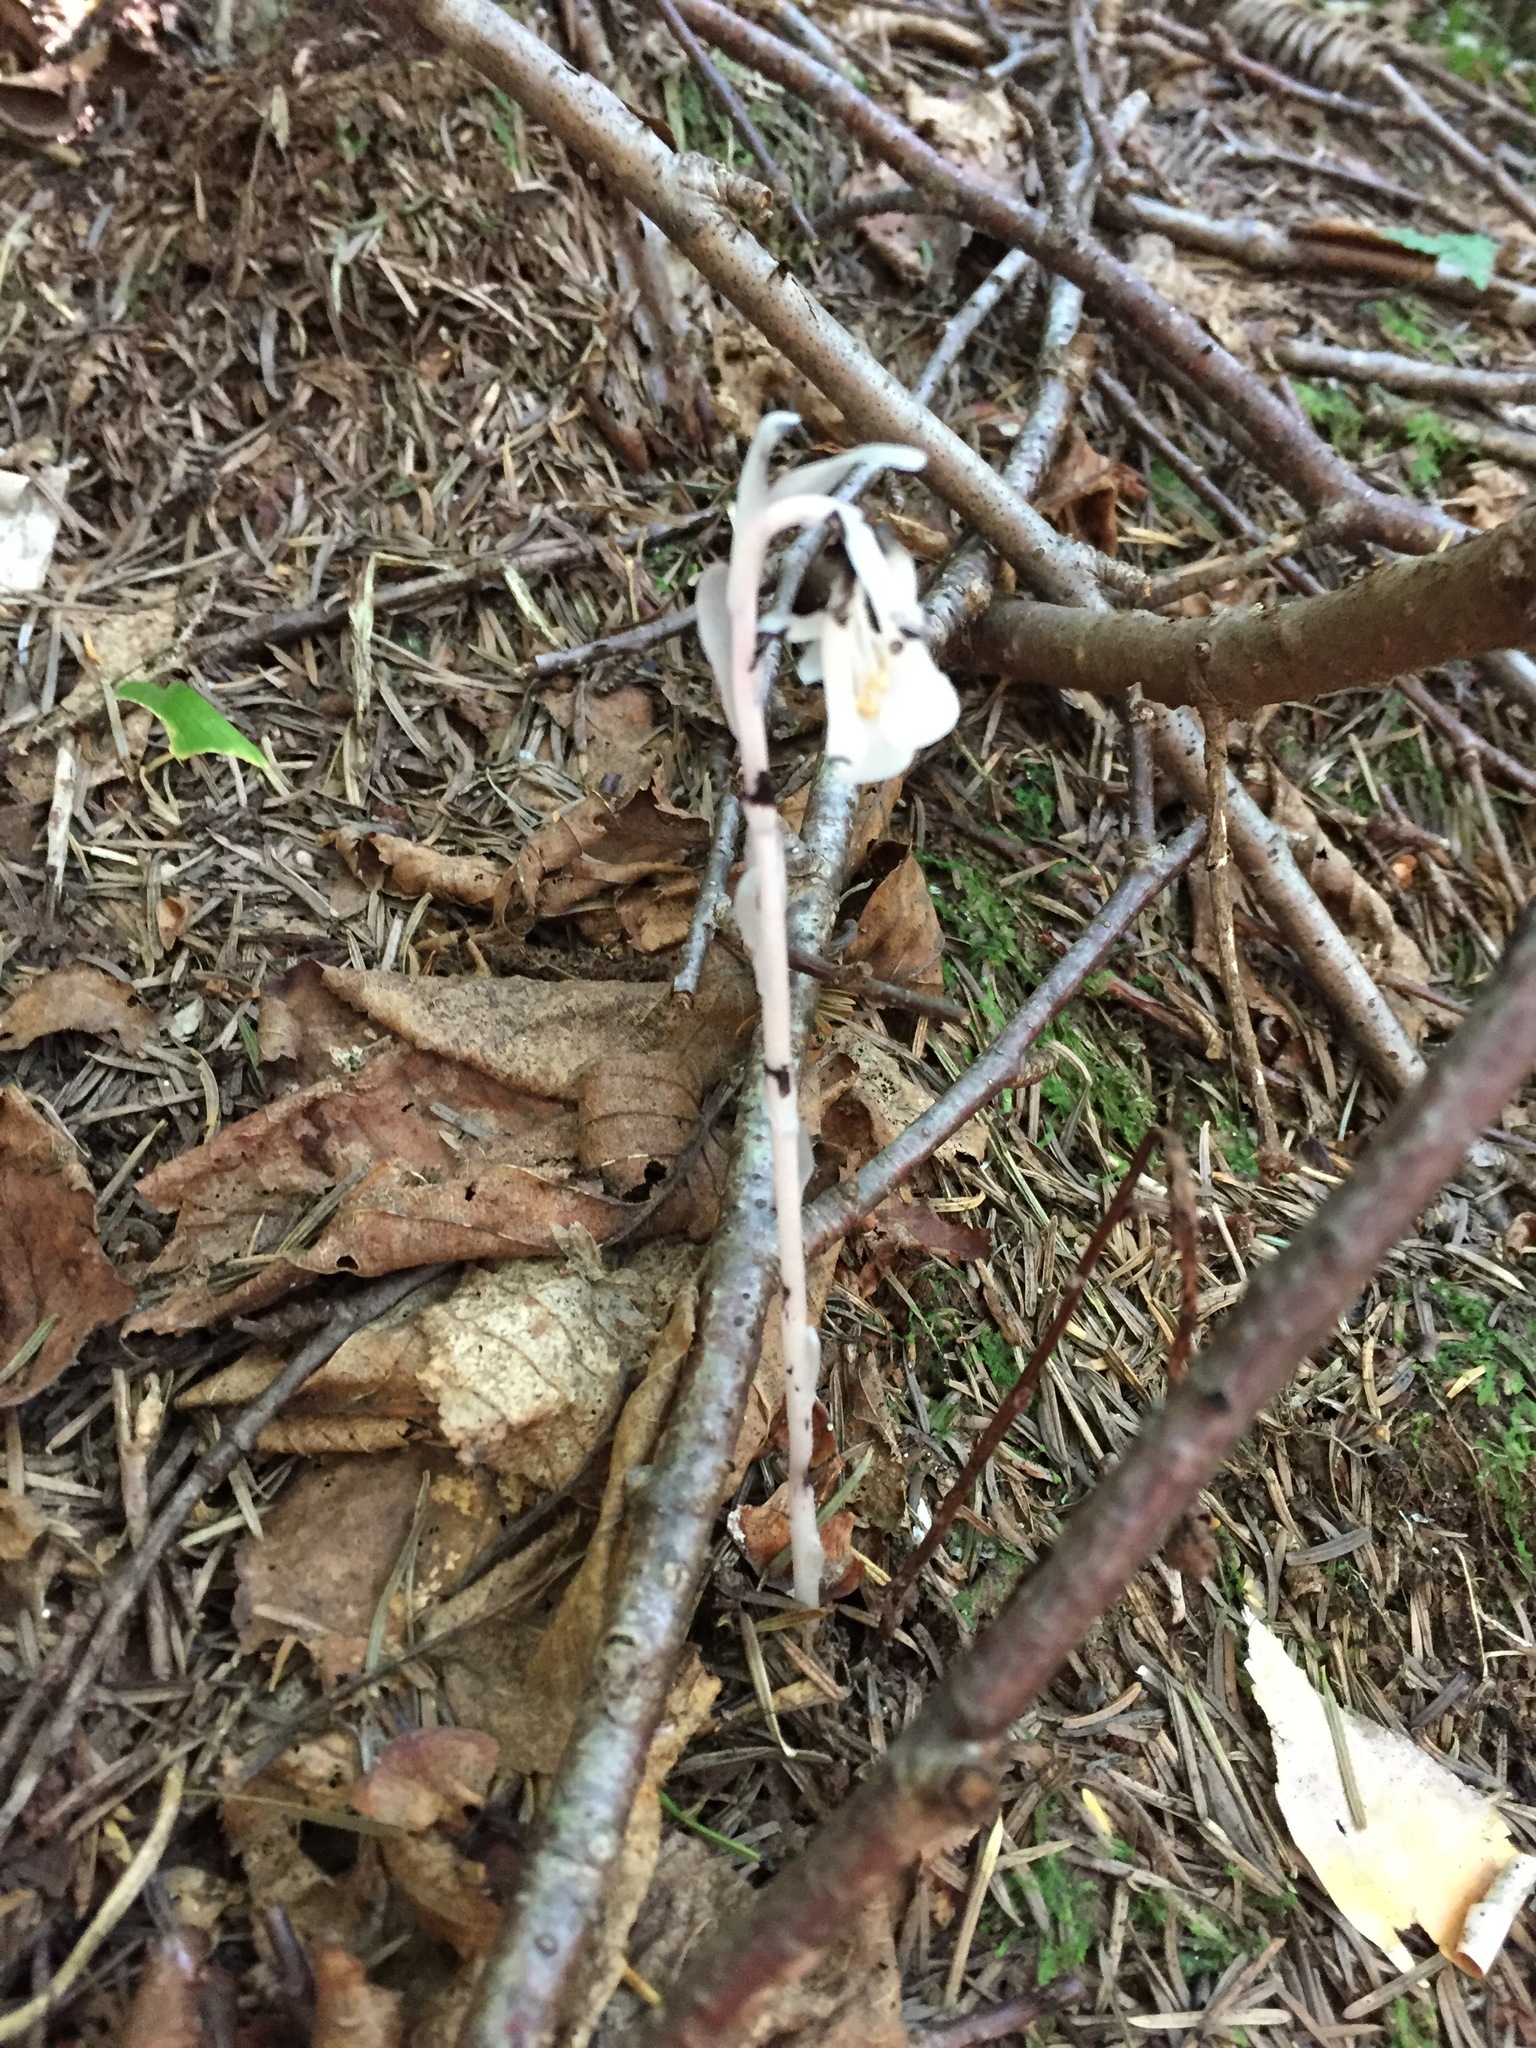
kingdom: Plantae
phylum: Tracheophyta
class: Magnoliopsida
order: Ericales
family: Ericaceae
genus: Monotropa
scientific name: Monotropa uniflora
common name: Convulsion root
